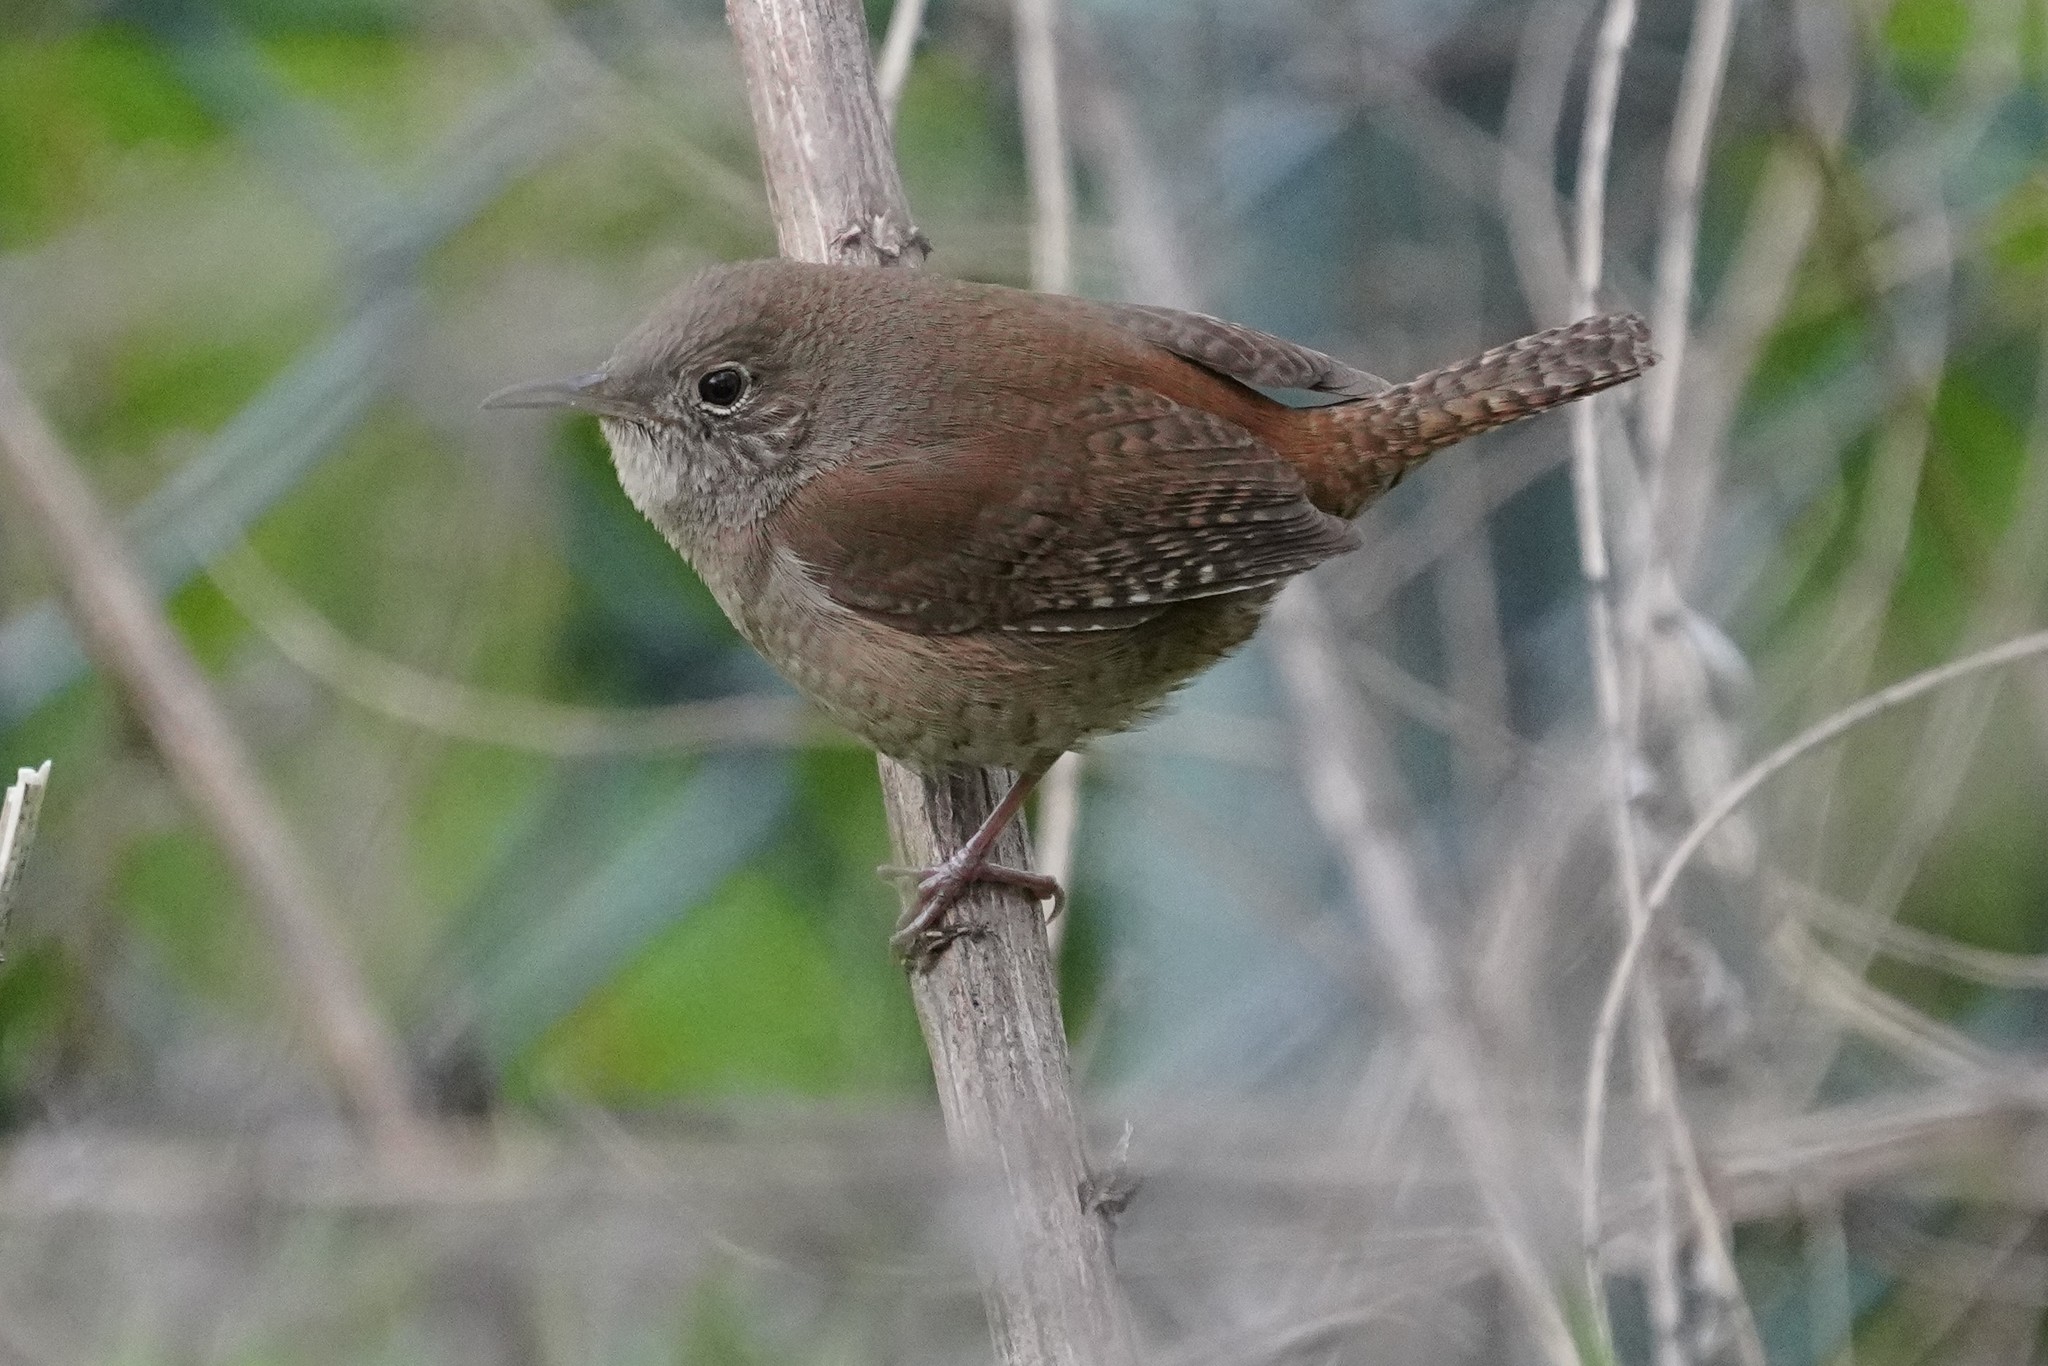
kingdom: Animalia
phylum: Chordata
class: Aves
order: Passeriformes
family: Troglodytidae
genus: Troglodytes
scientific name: Troglodytes aedon
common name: House wren
